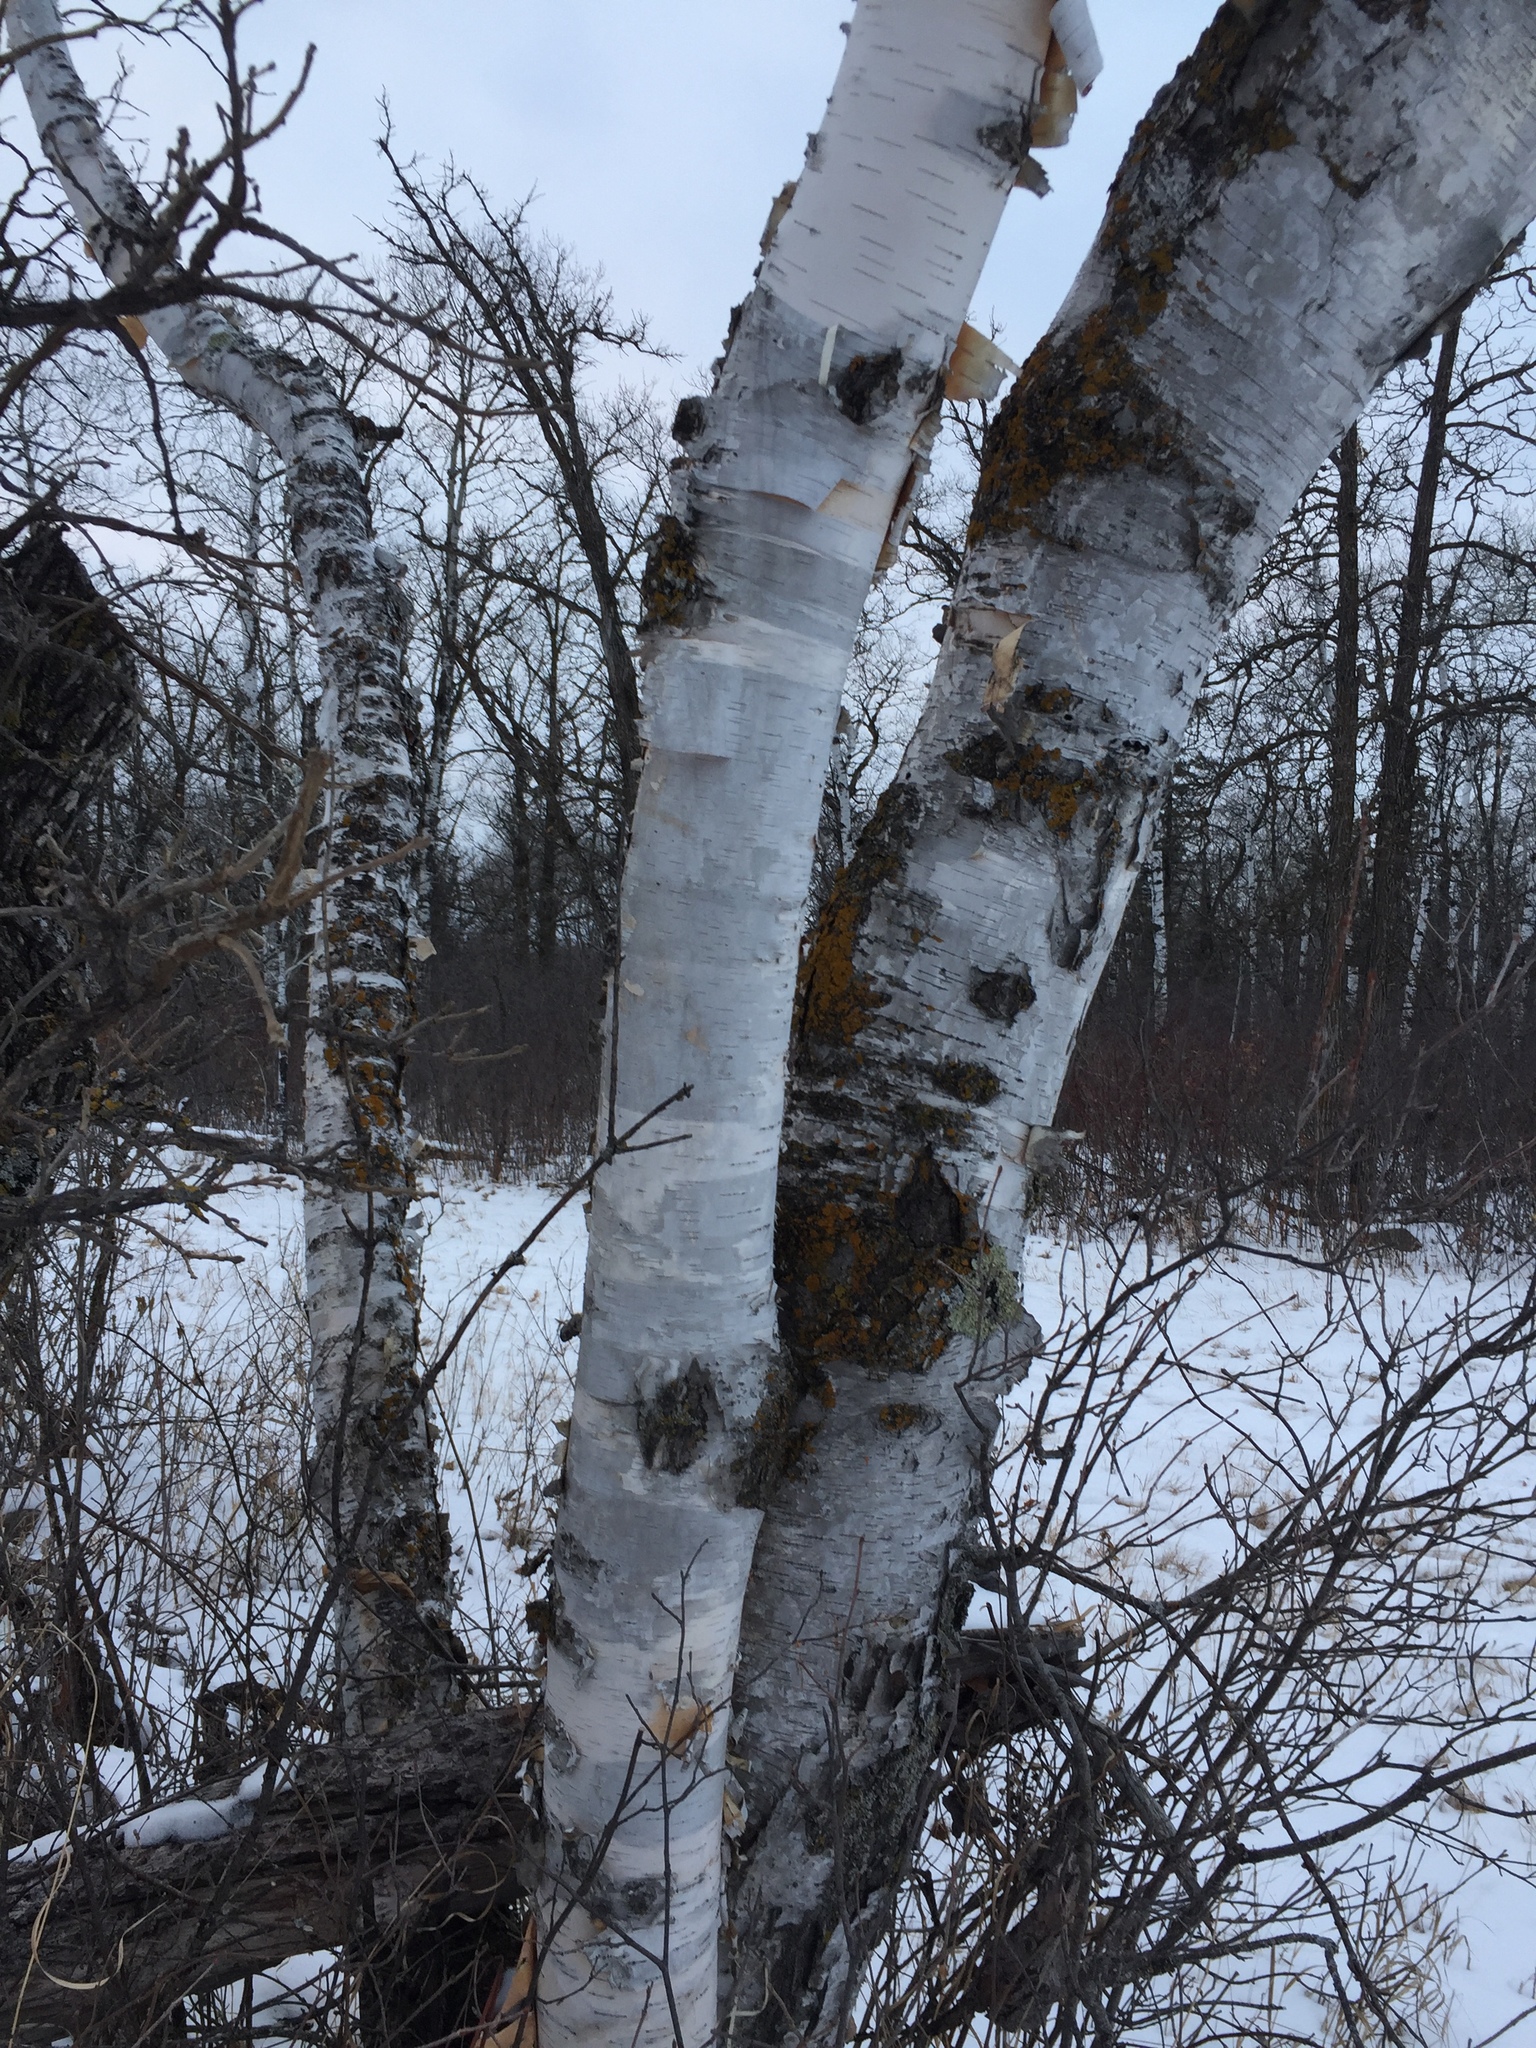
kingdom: Plantae
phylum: Tracheophyta
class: Magnoliopsida
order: Fagales
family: Betulaceae
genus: Betula
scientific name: Betula papyrifera
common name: Paper birch
